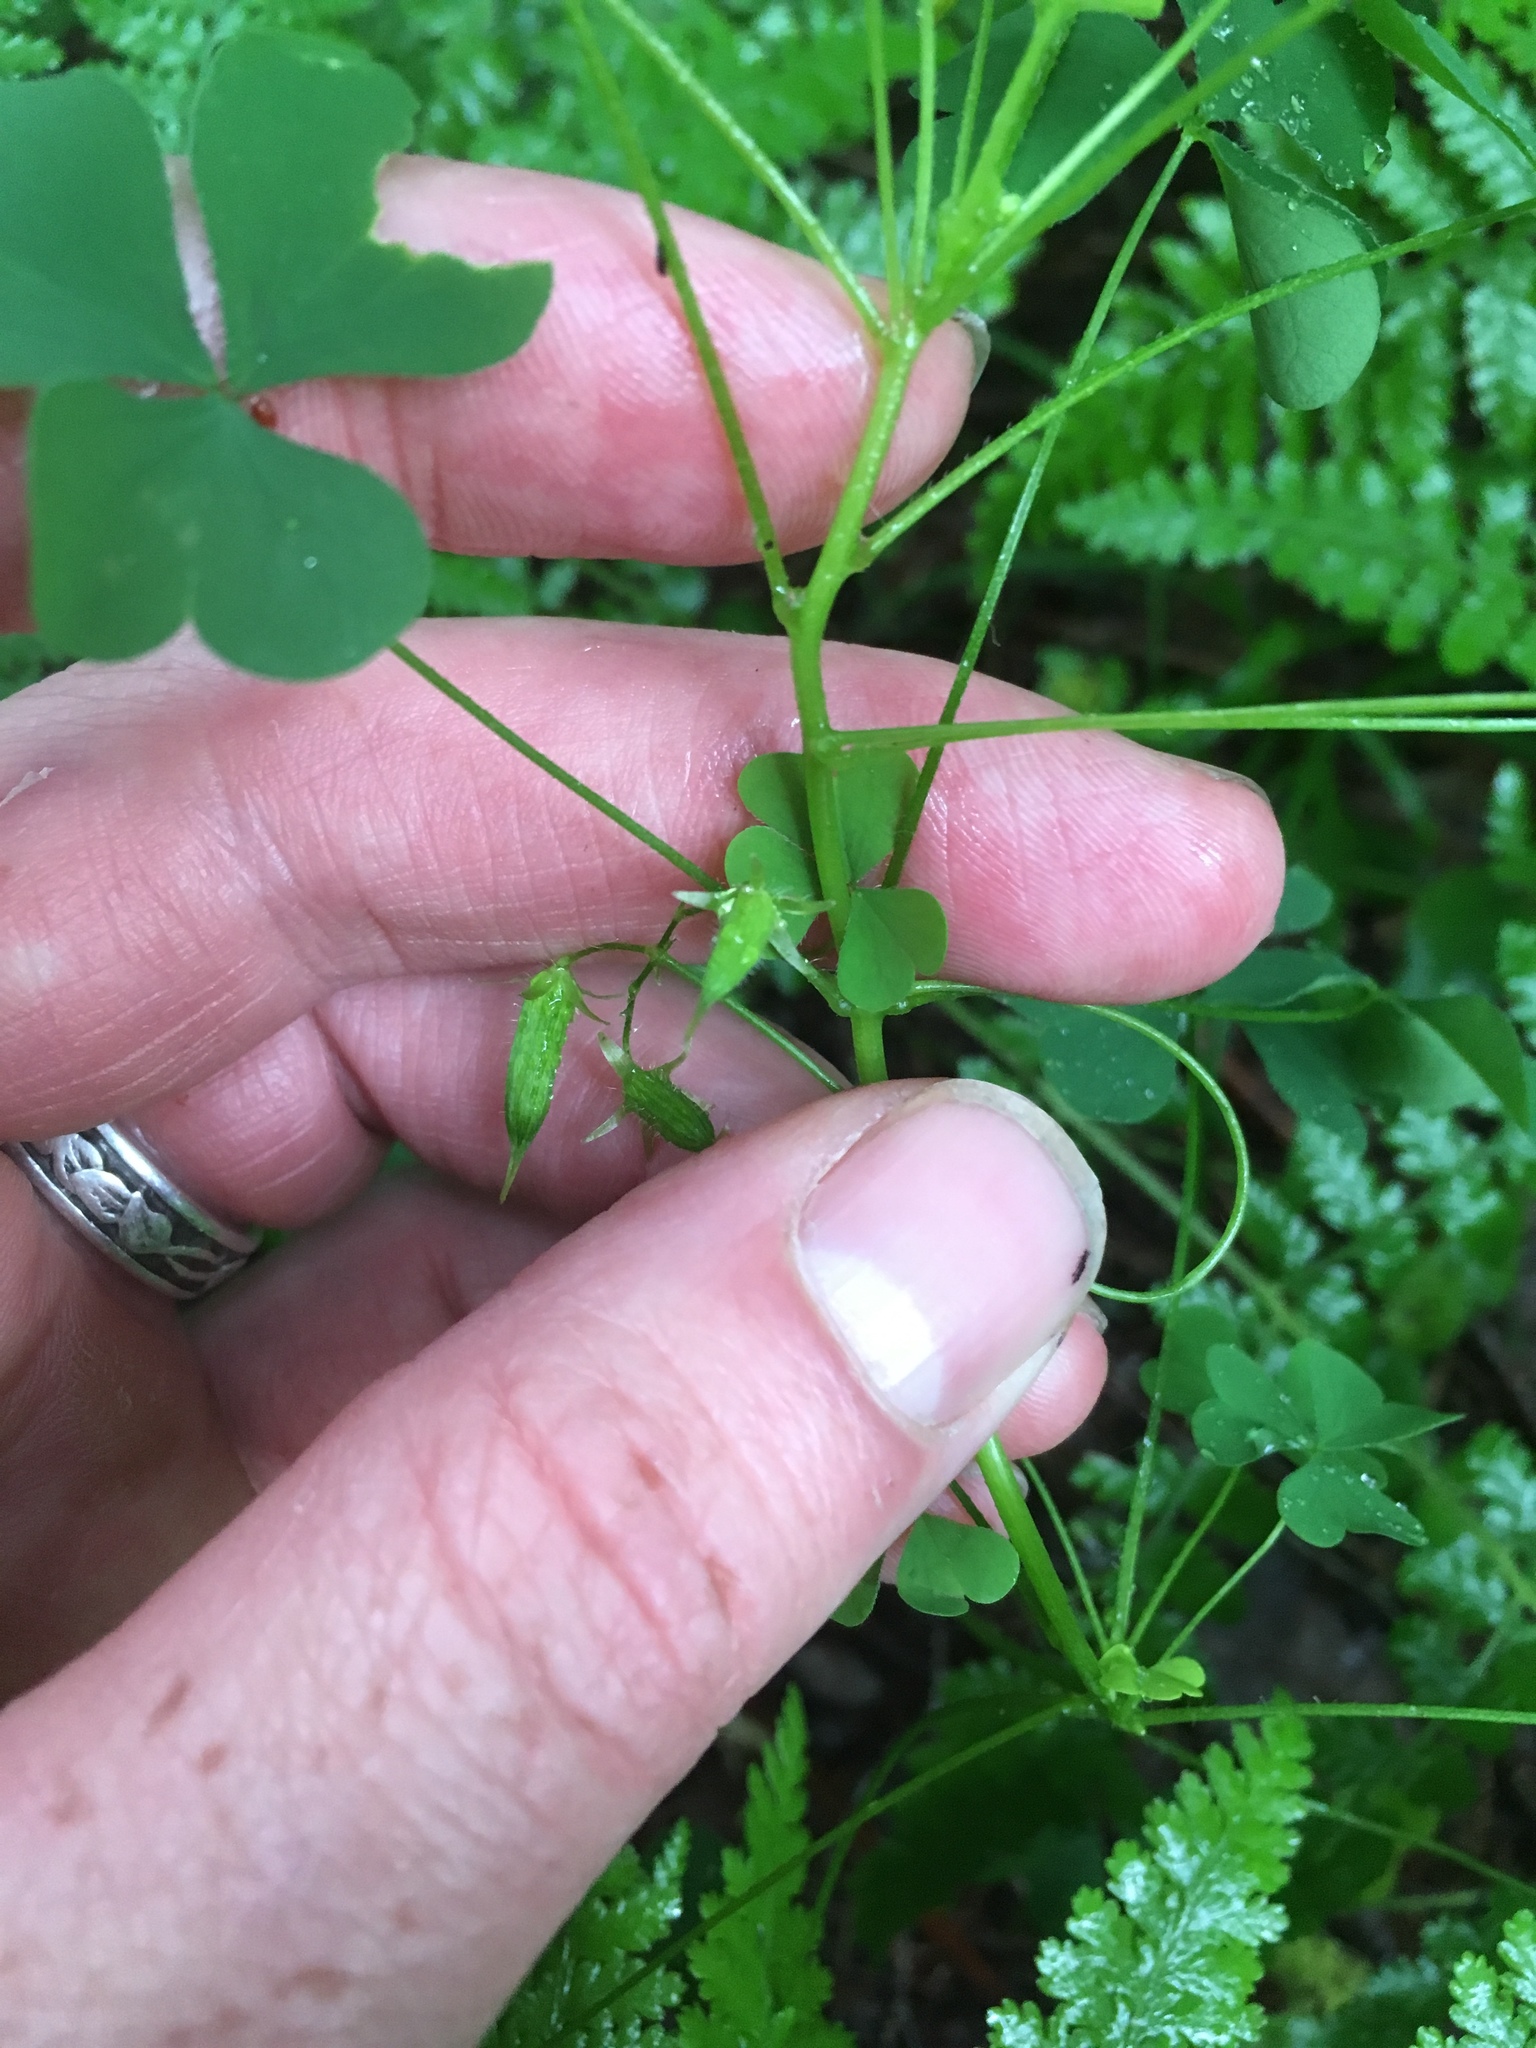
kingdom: Plantae
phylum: Tracheophyta
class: Magnoliopsida
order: Oxalidales
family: Oxalidaceae
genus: Oxalis
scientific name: Oxalis stricta
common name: Upright yellow-sorrel
